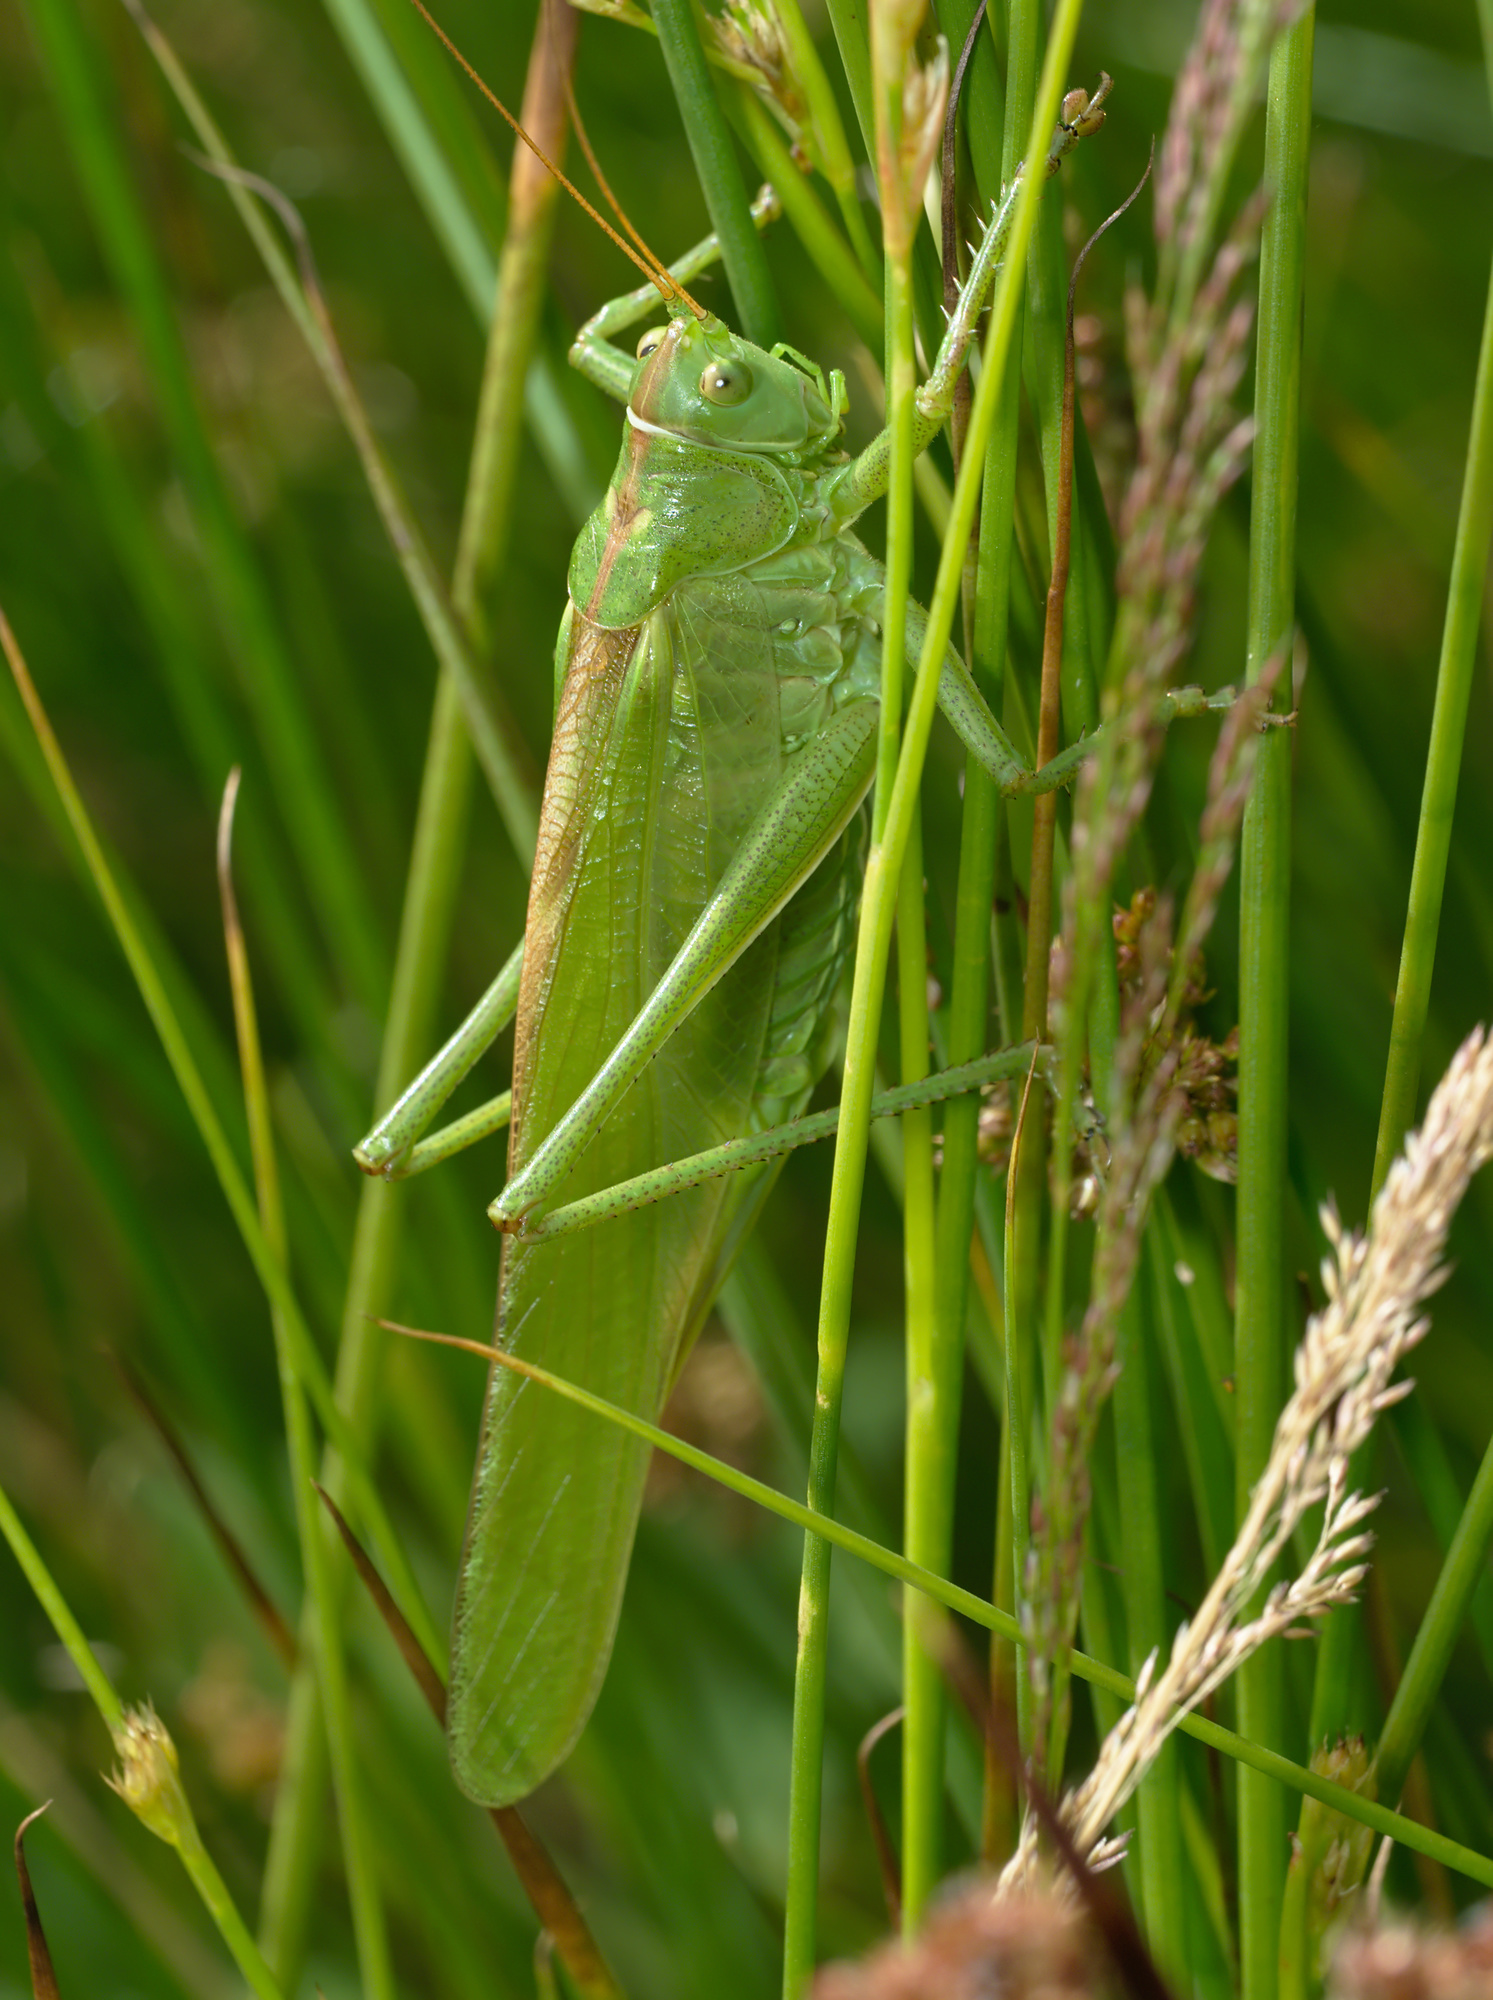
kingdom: Animalia
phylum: Arthropoda
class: Insecta
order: Orthoptera
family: Tettigoniidae
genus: Tettigonia
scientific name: Tettigonia viridissima
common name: Great green bush-cricket
